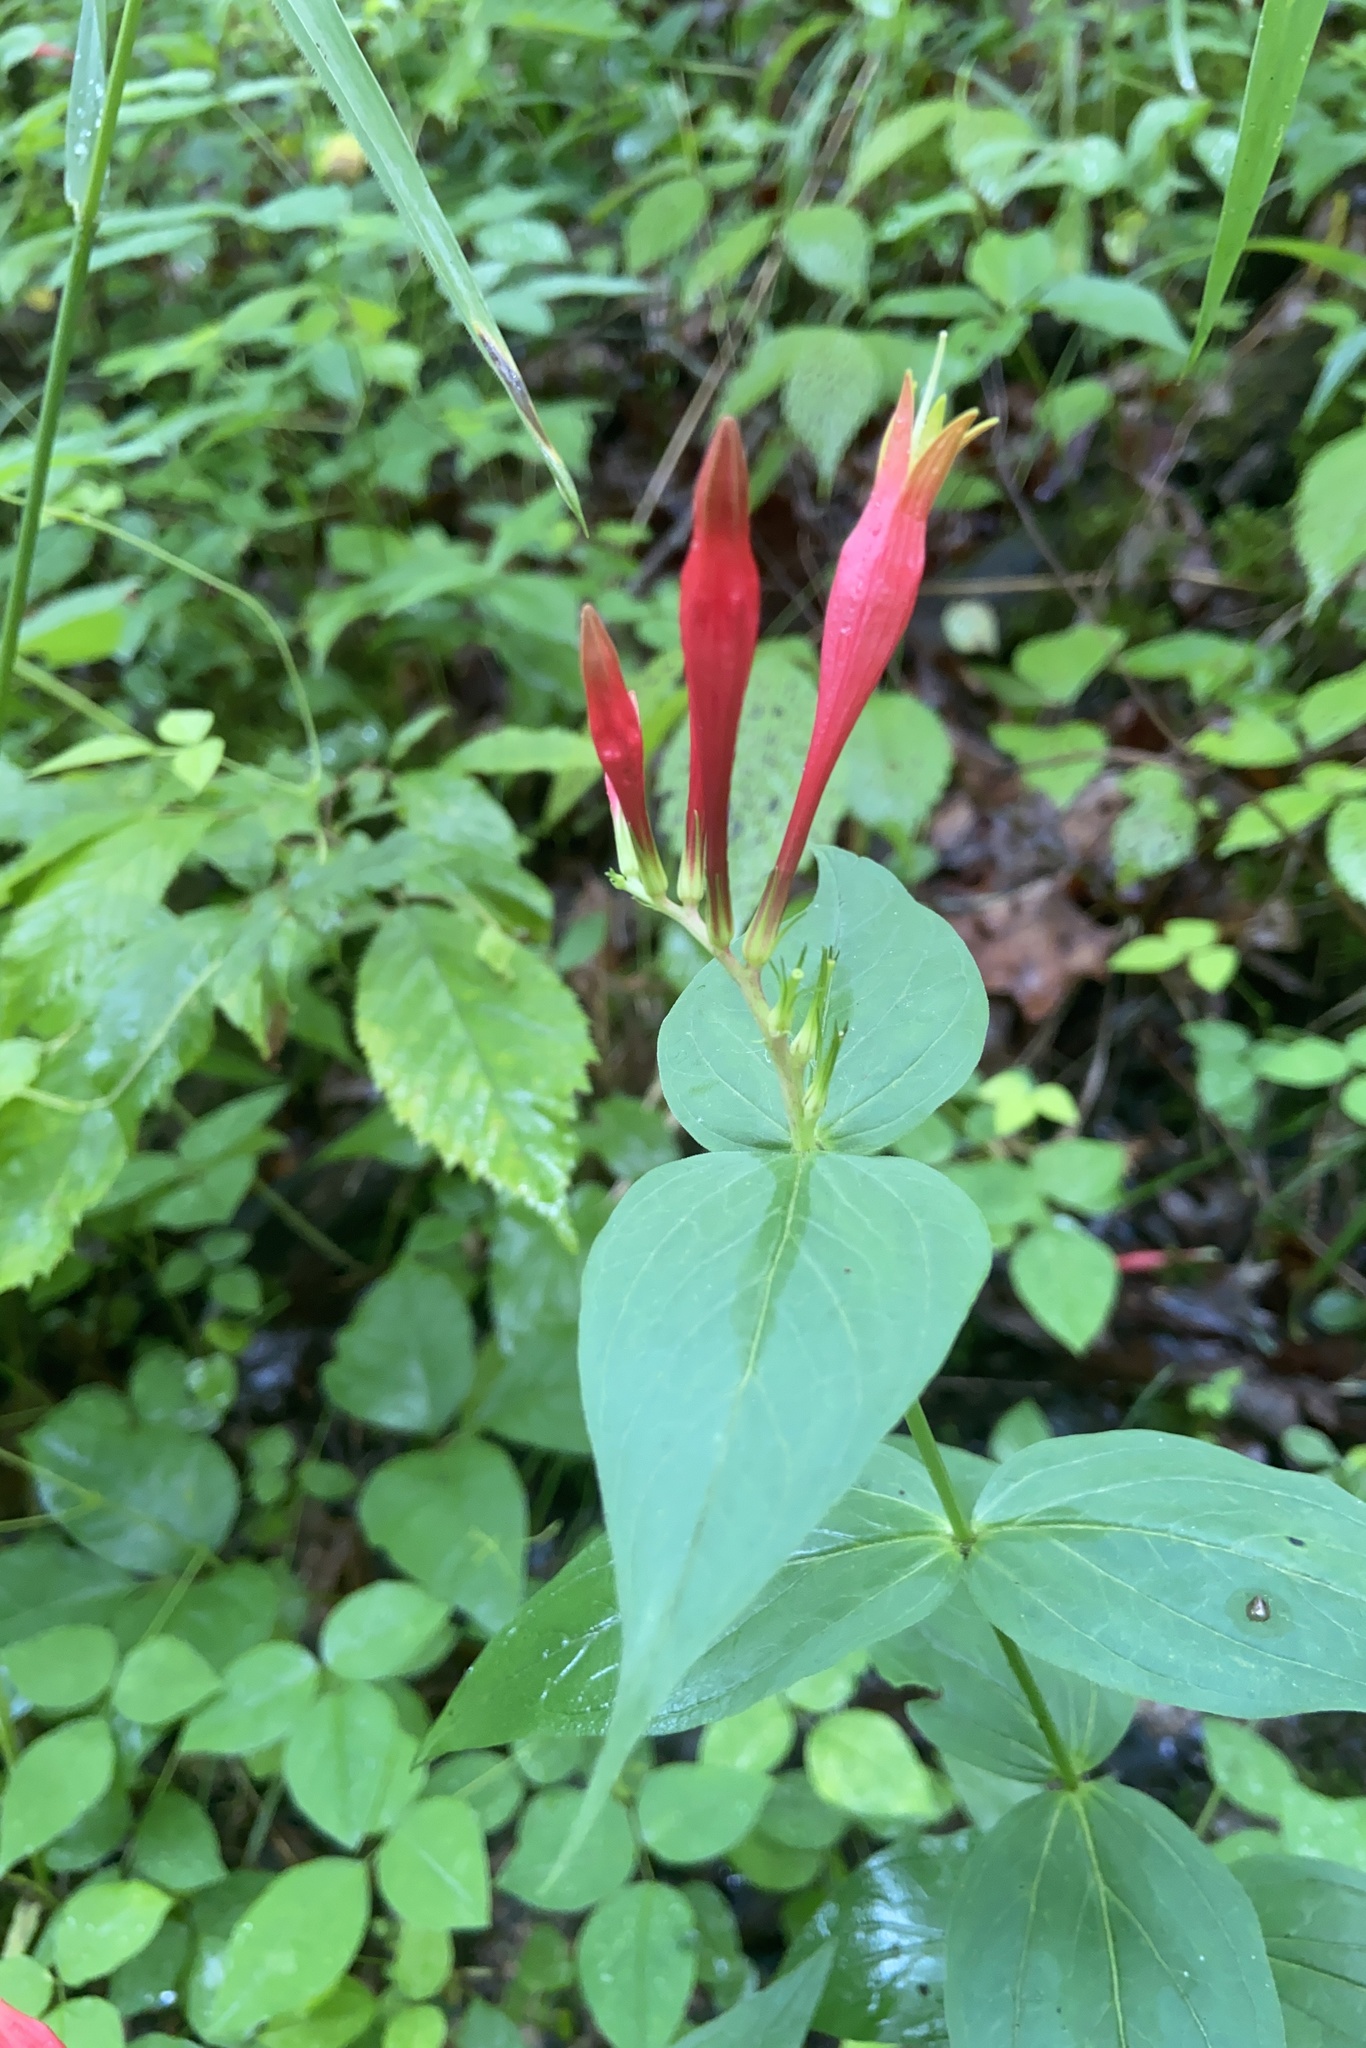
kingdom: Plantae
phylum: Tracheophyta
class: Magnoliopsida
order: Gentianales
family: Loganiaceae
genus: Spigelia
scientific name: Spigelia marilandica
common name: Indian-pink
